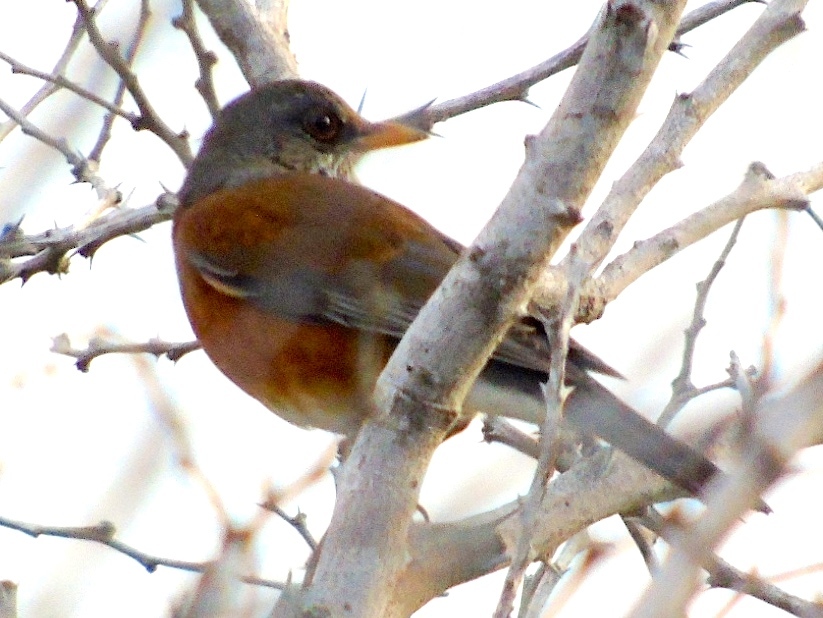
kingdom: Animalia
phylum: Chordata
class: Aves
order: Passeriformes
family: Turdidae
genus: Turdus
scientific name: Turdus rufopalliatus
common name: Rufous-backed robin
